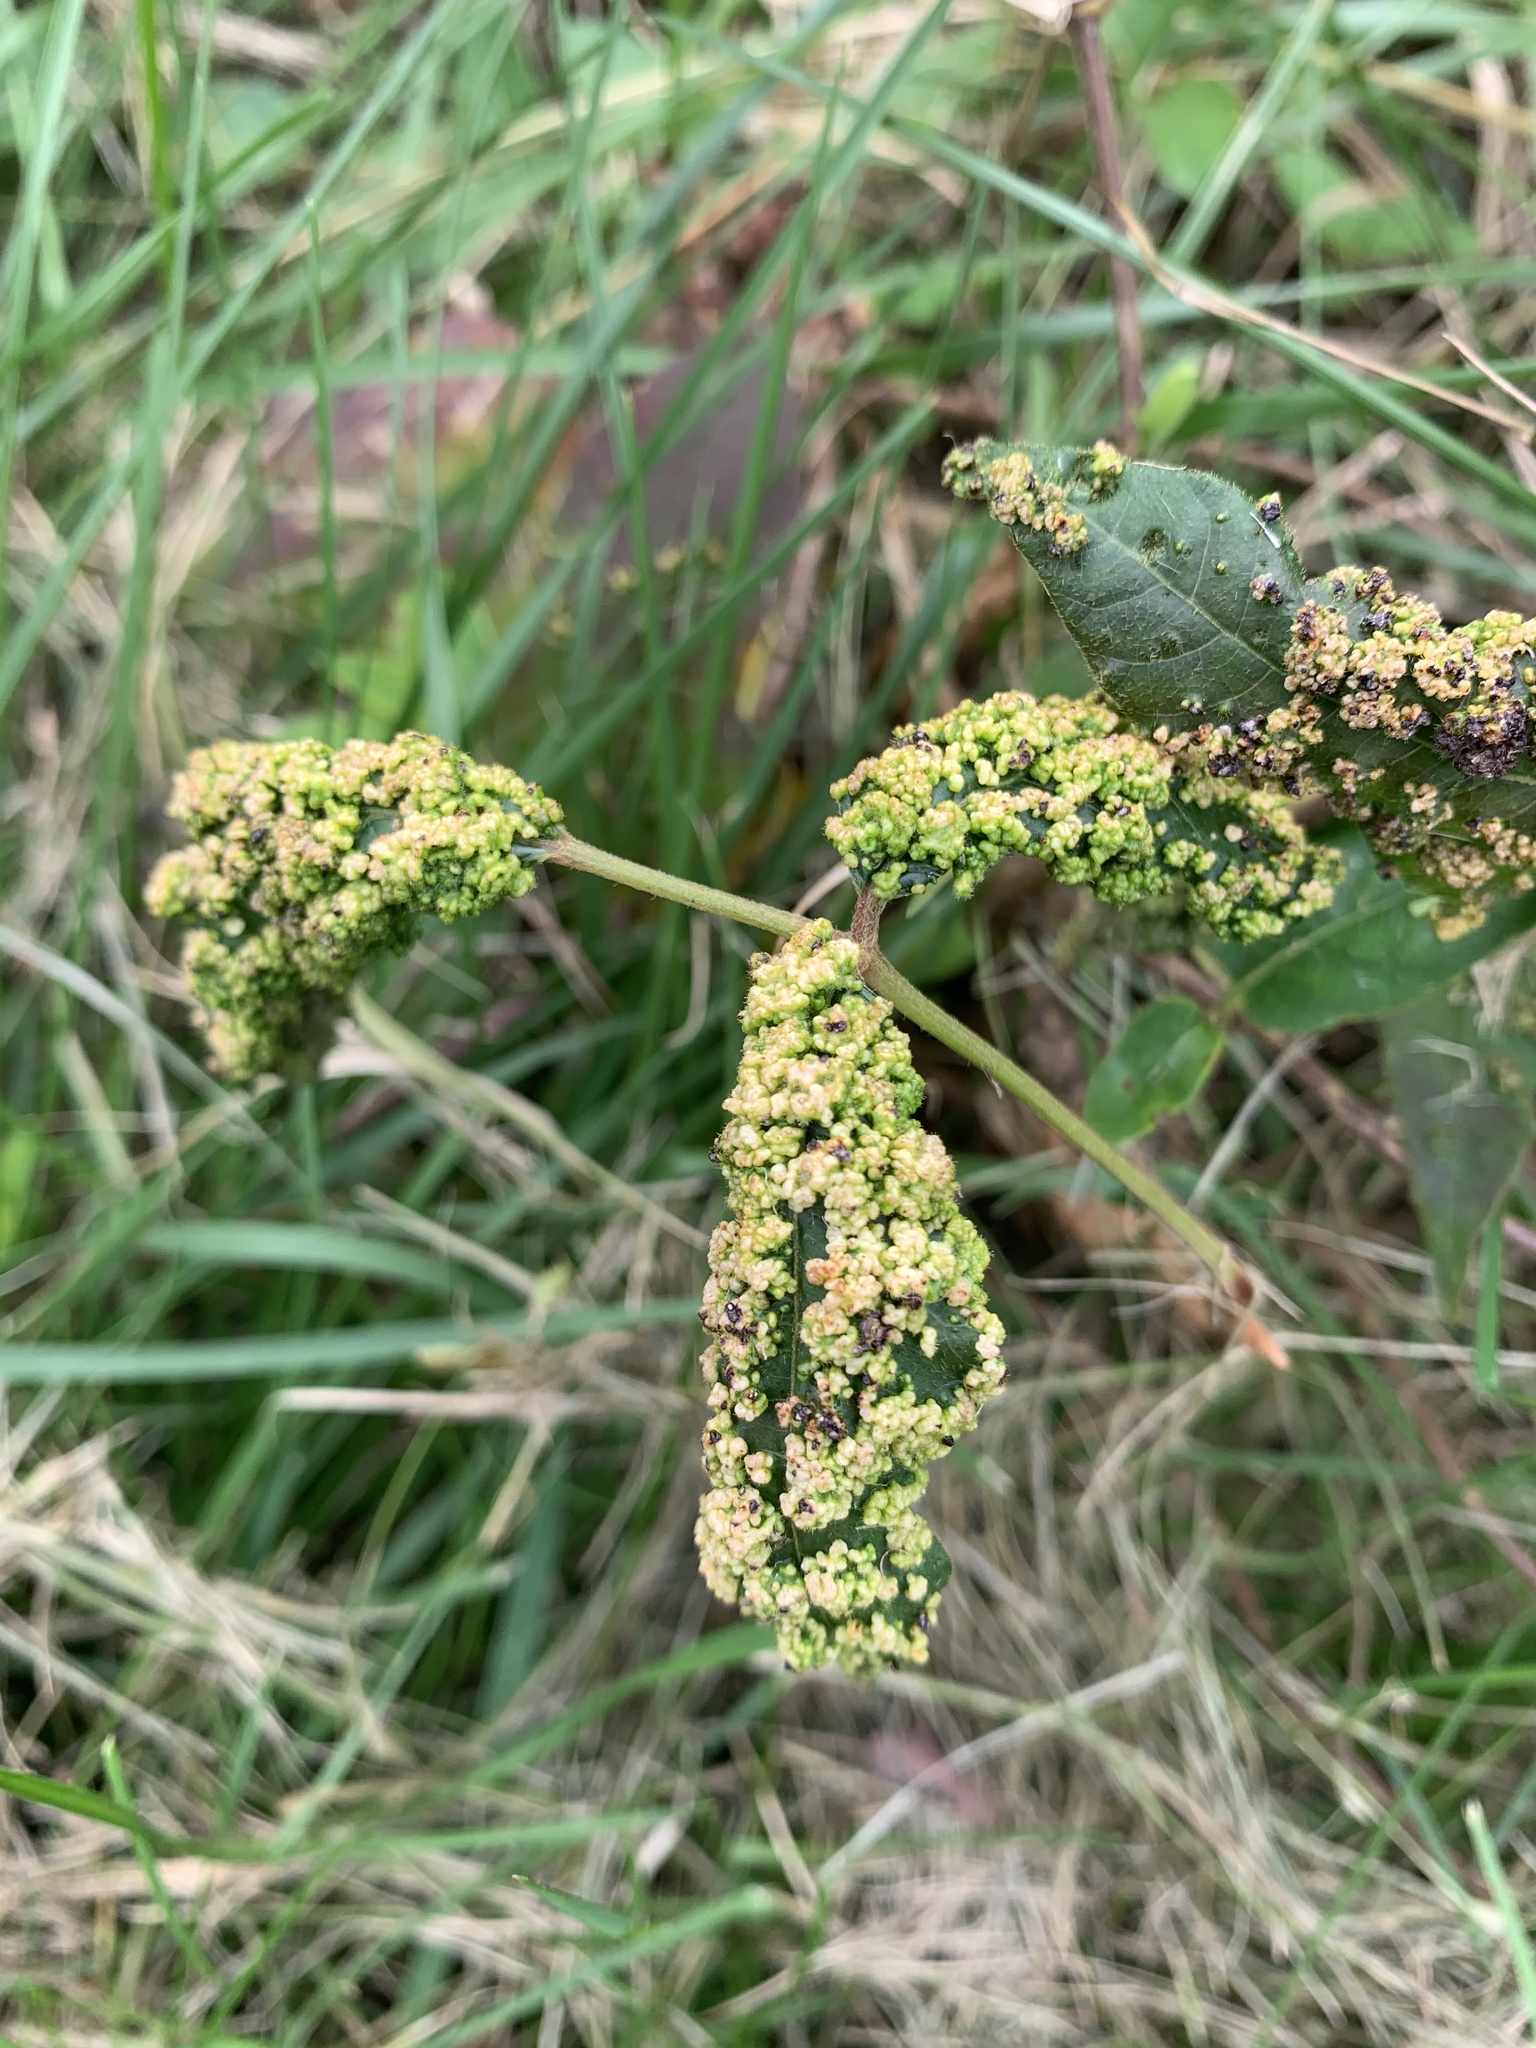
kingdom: Animalia
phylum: Arthropoda
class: Arachnida
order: Trombidiformes
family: Eriophyidae
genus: Aculops
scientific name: Aculops
